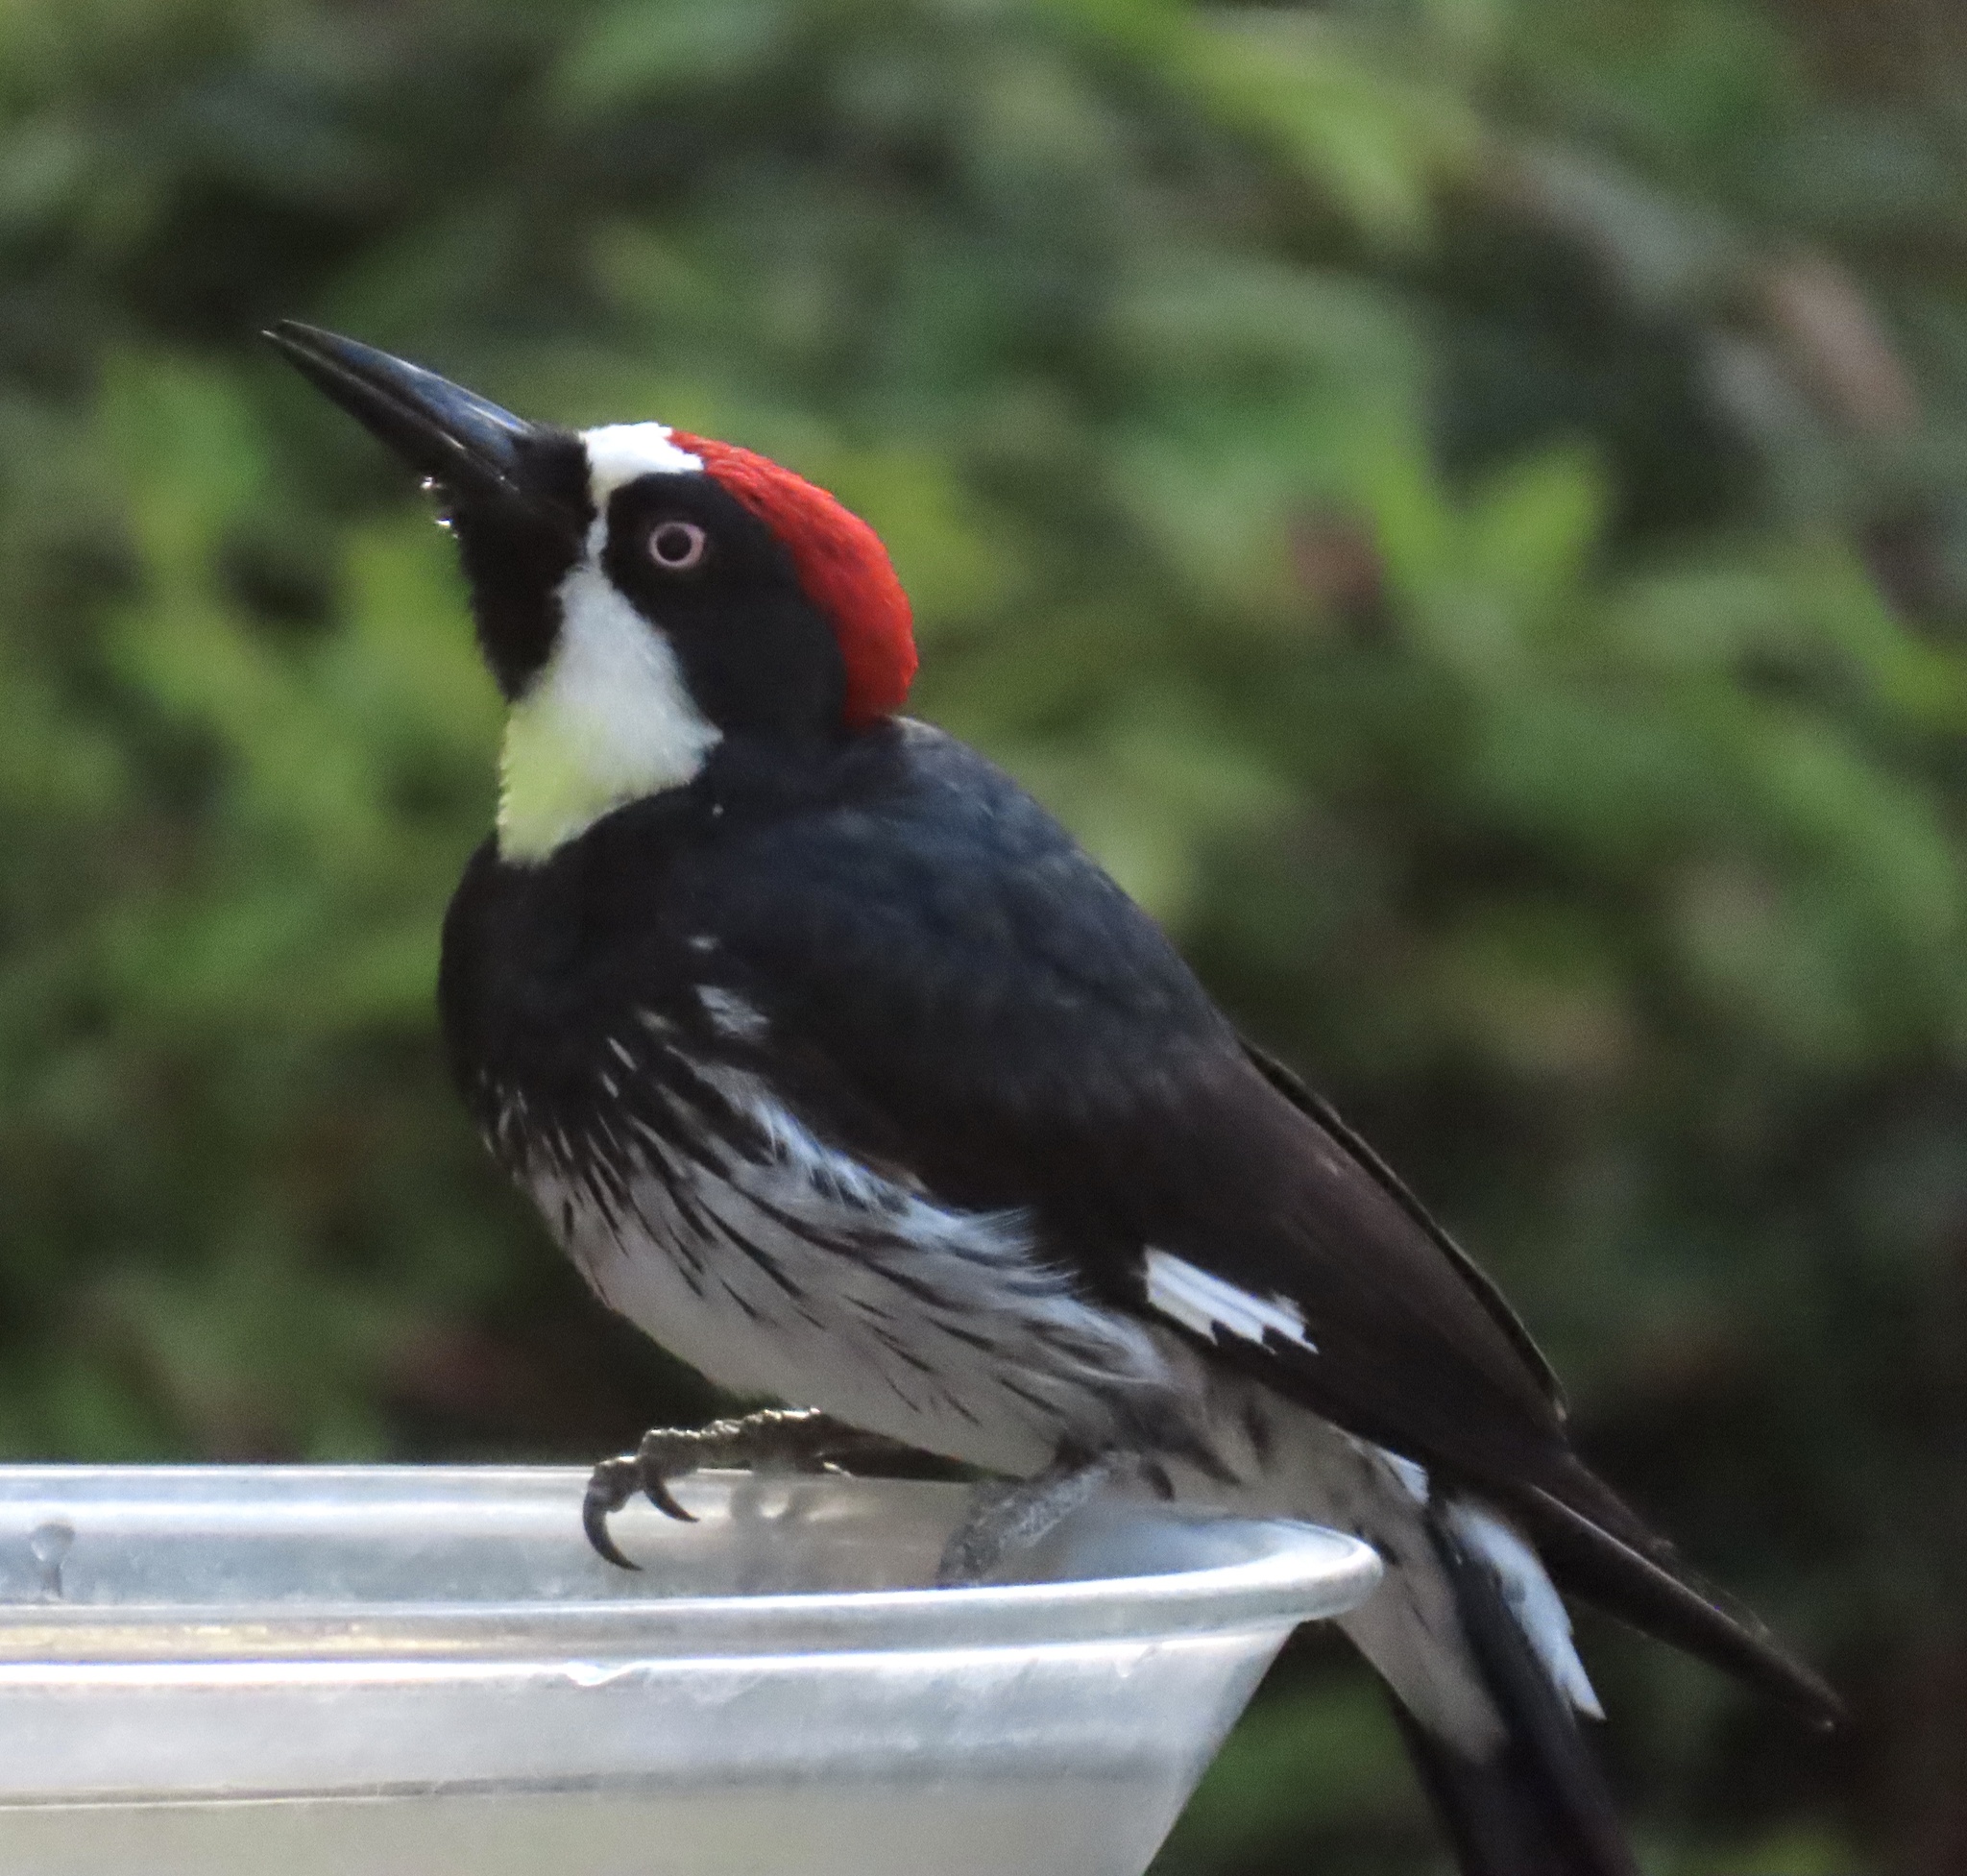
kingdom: Animalia
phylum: Chordata
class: Aves
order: Piciformes
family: Picidae
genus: Melanerpes
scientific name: Melanerpes formicivorus
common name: Acorn woodpecker
